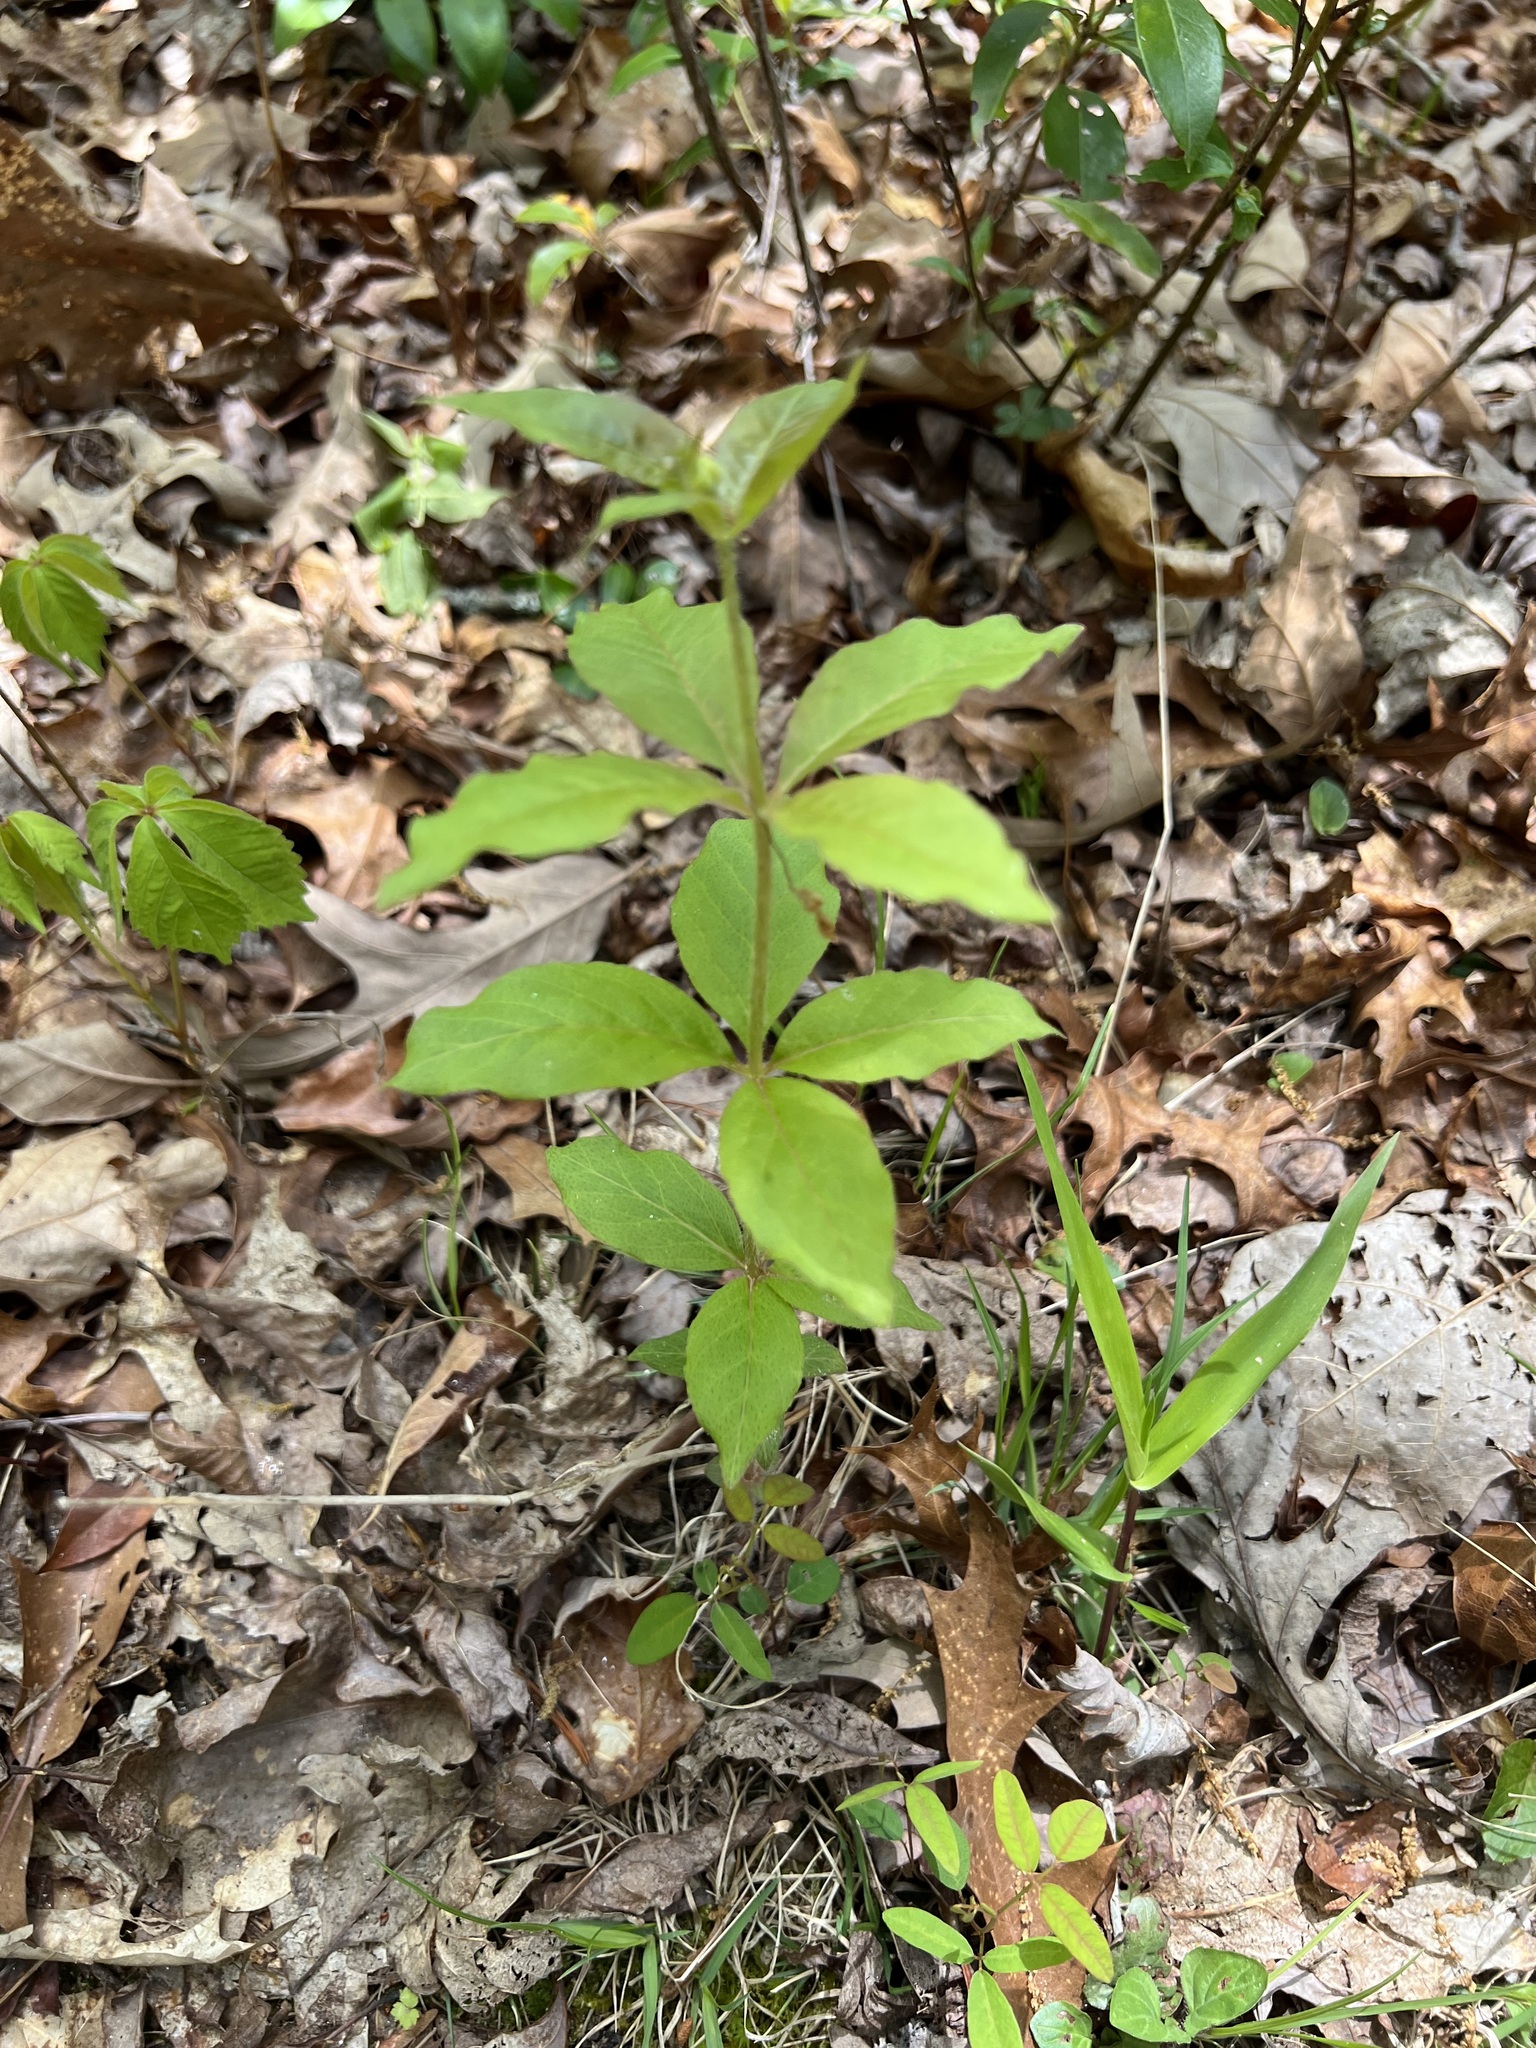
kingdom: Plantae
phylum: Tracheophyta
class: Magnoliopsida
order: Ericales
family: Primulaceae
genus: Lysimachia
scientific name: Lysimachia quadrifolia
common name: Whorled loosestrife
